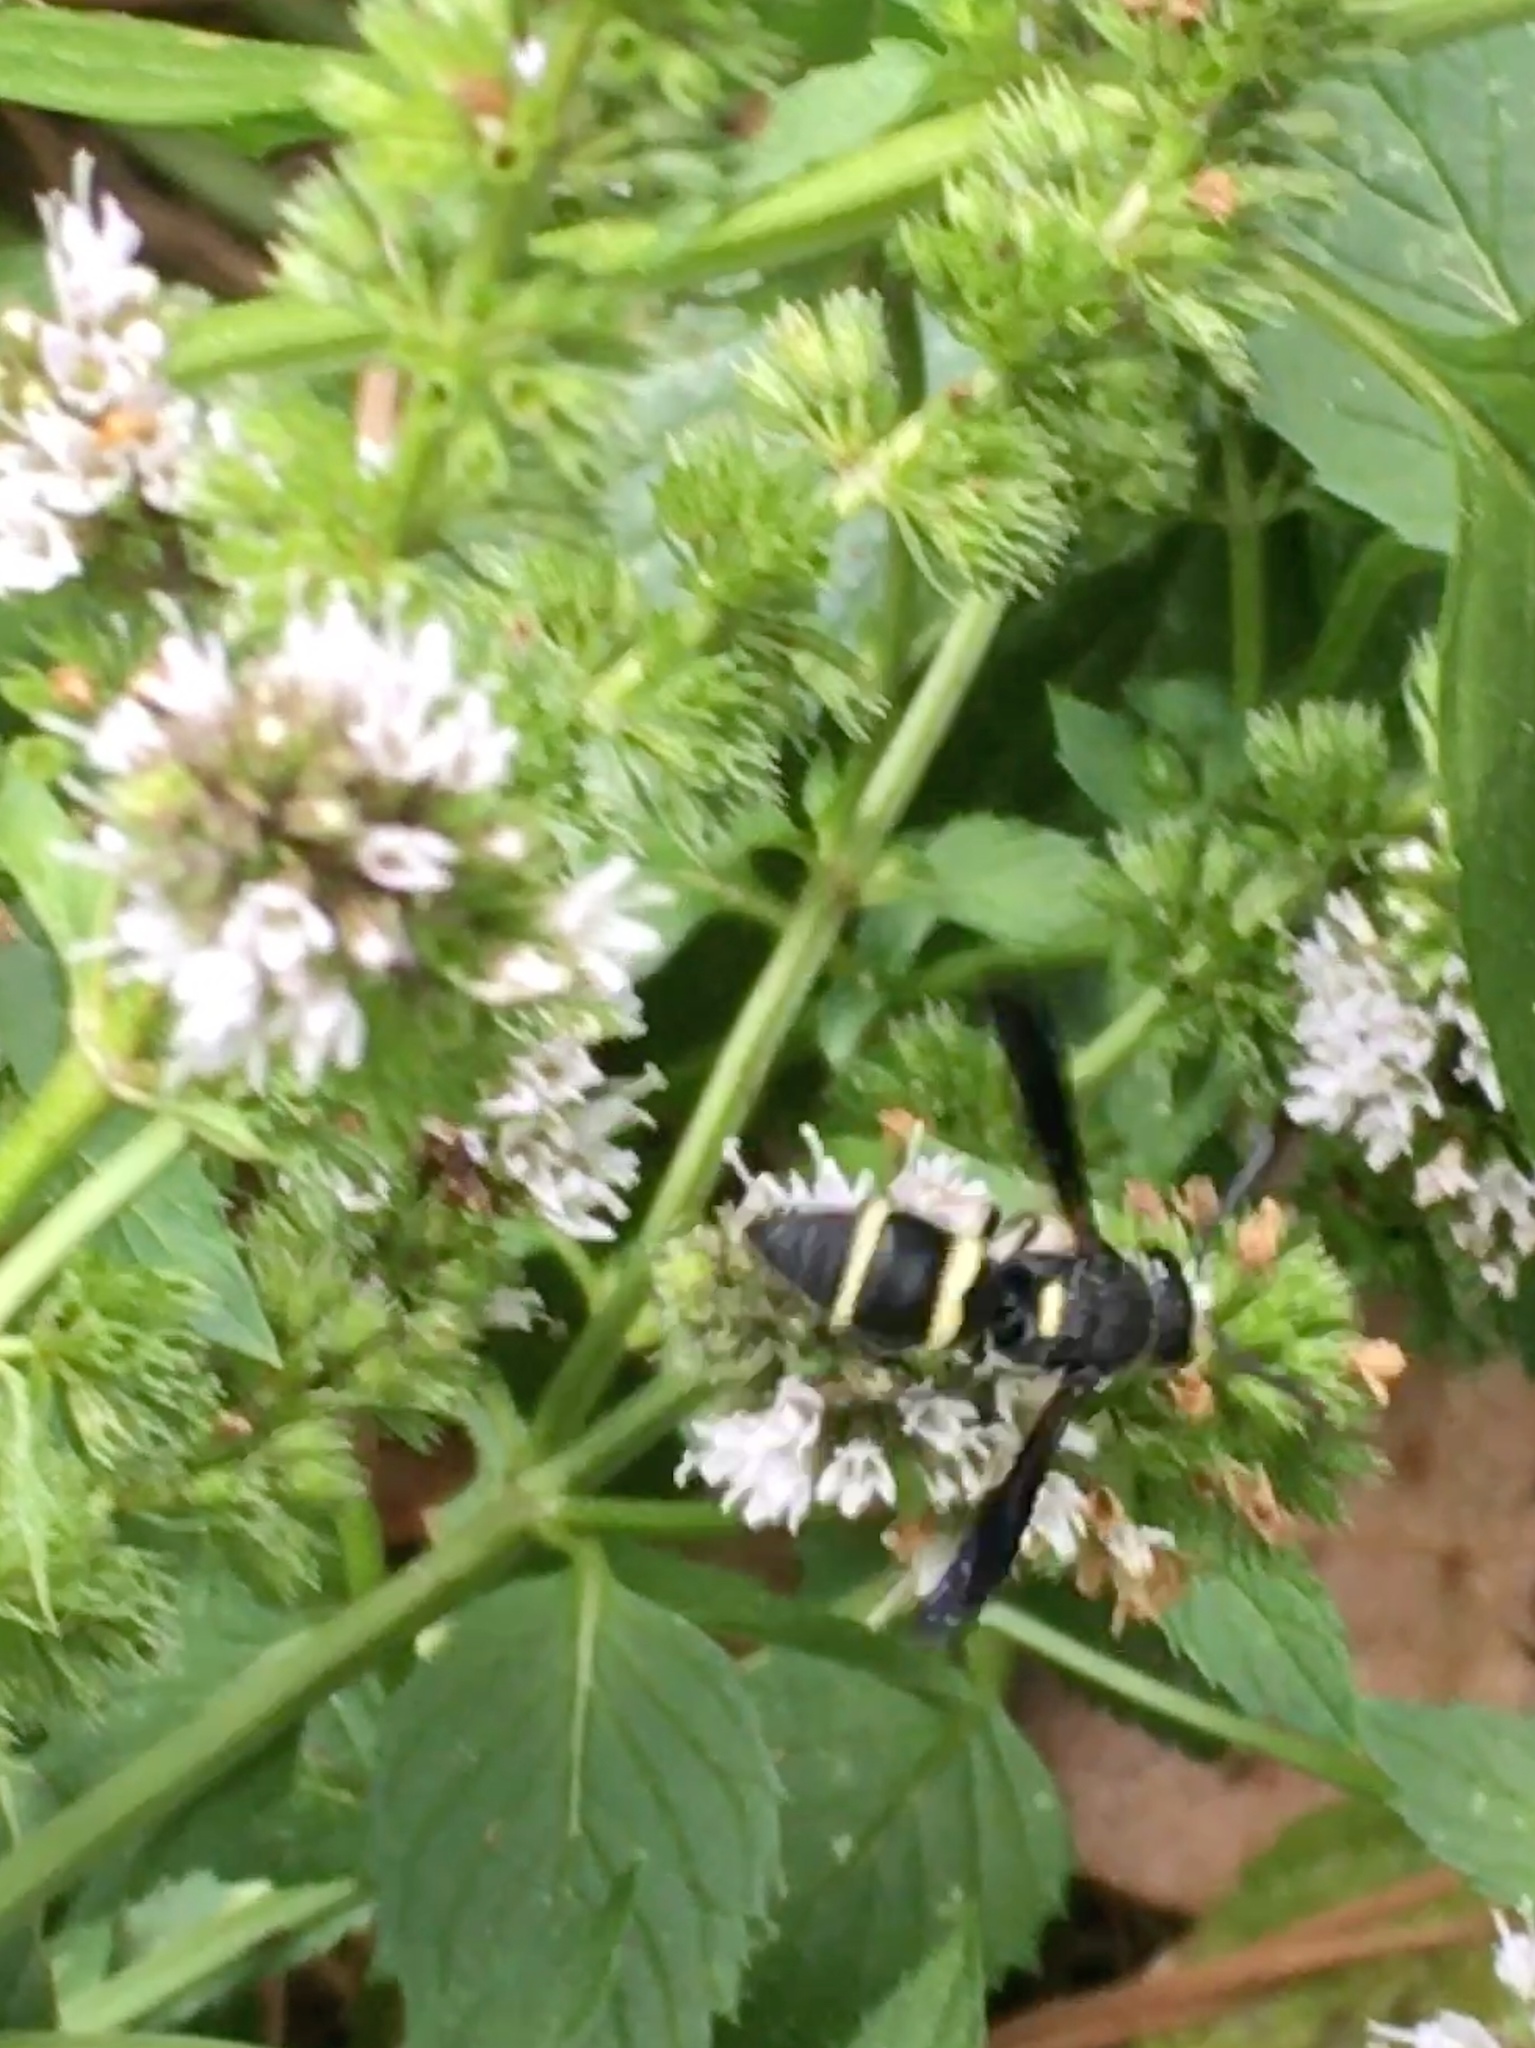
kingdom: Animalia
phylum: Arthropoda
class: Insecta
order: Hymenoptera
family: Eumenidae
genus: Euodynerus
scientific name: Euodynerus
